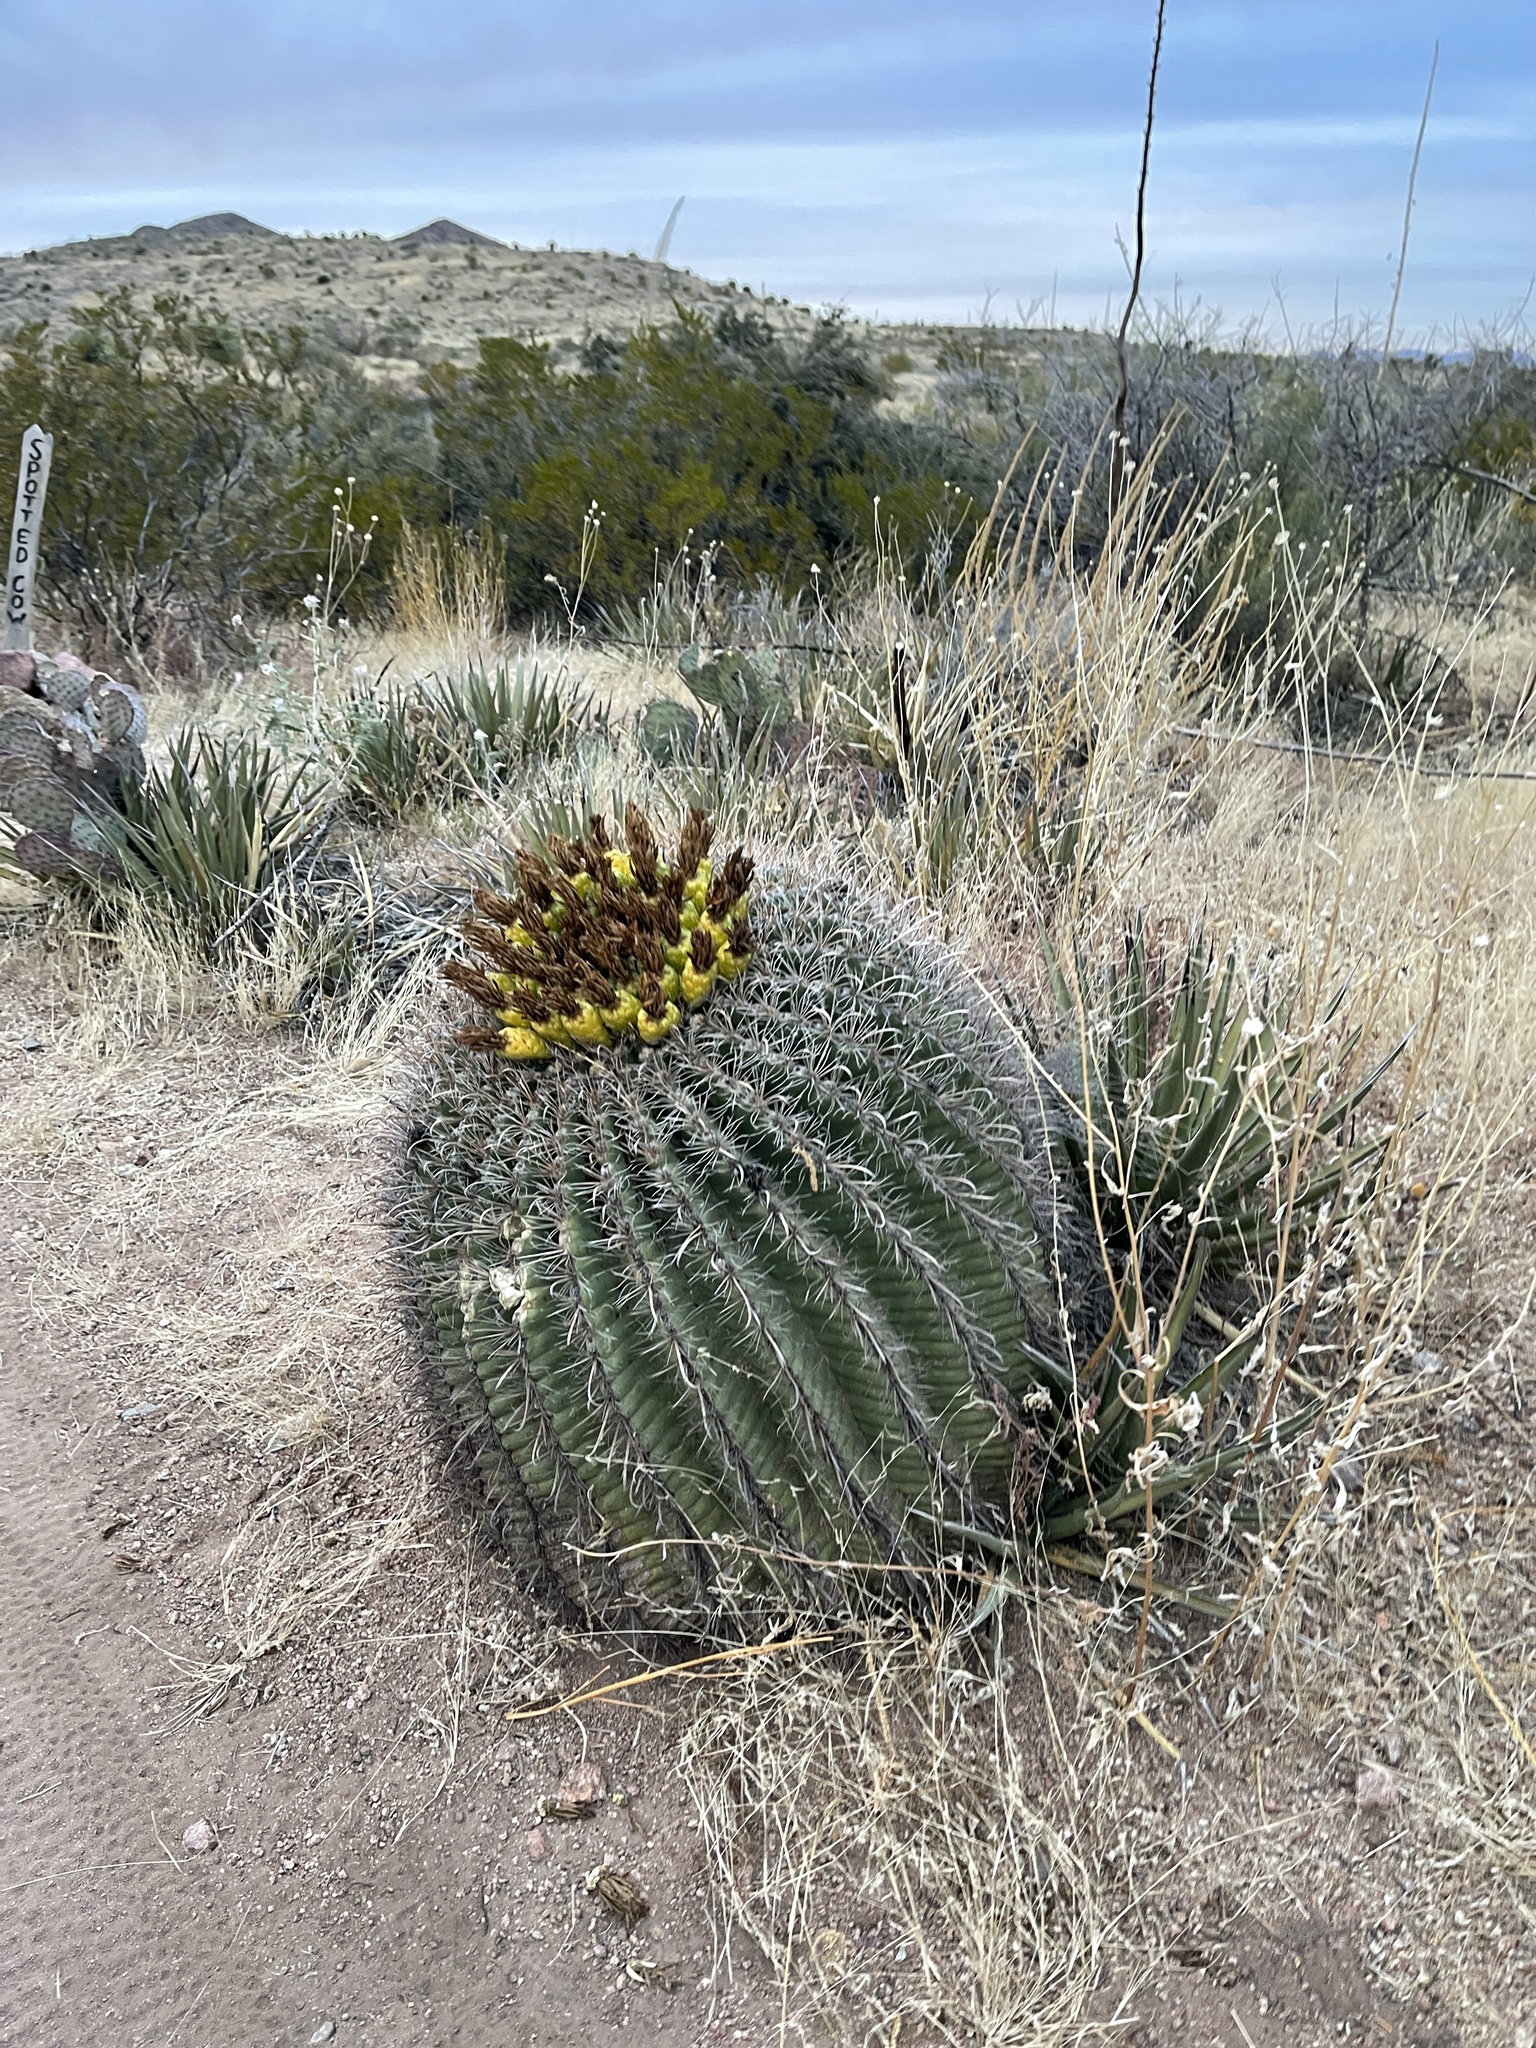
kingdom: Plantae
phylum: Tracheophyta
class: Magnoliopsida
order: Caryophyllales
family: Cactaceae
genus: Ferocactus
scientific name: Ferocactus wislizeni
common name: Candy barrel cactus
